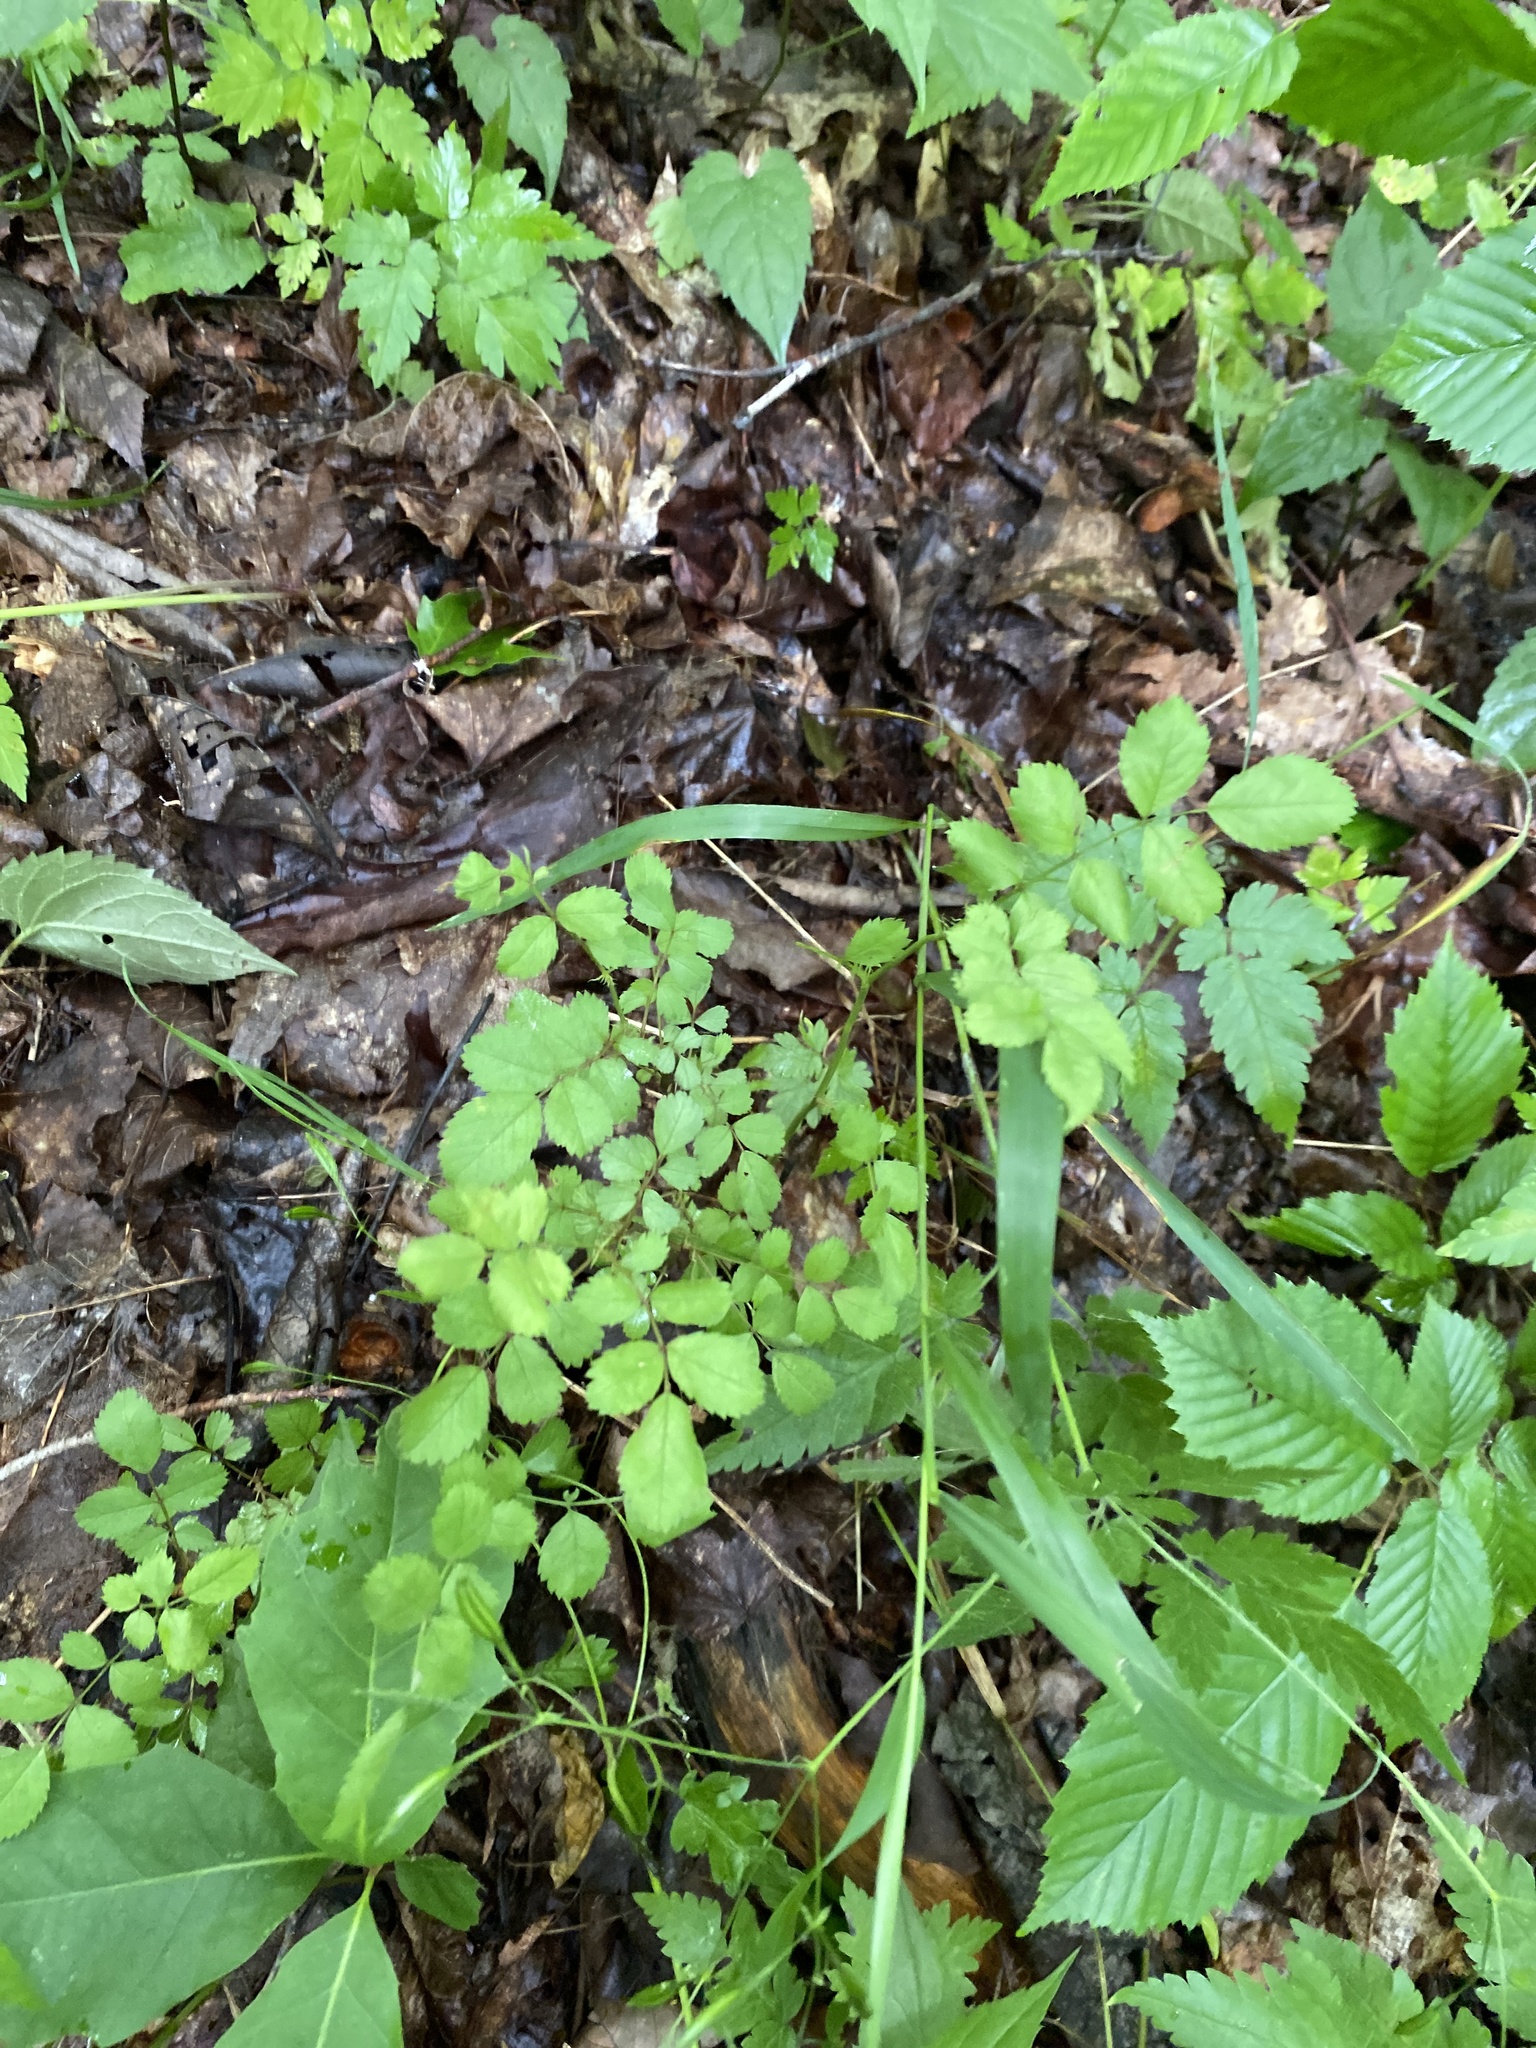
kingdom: Plantae
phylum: Tracheophyta
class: Magnoliopsida
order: Rosales
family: Rosaceae
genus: Rosa
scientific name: Rosa multiflora
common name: Multiflora rose
